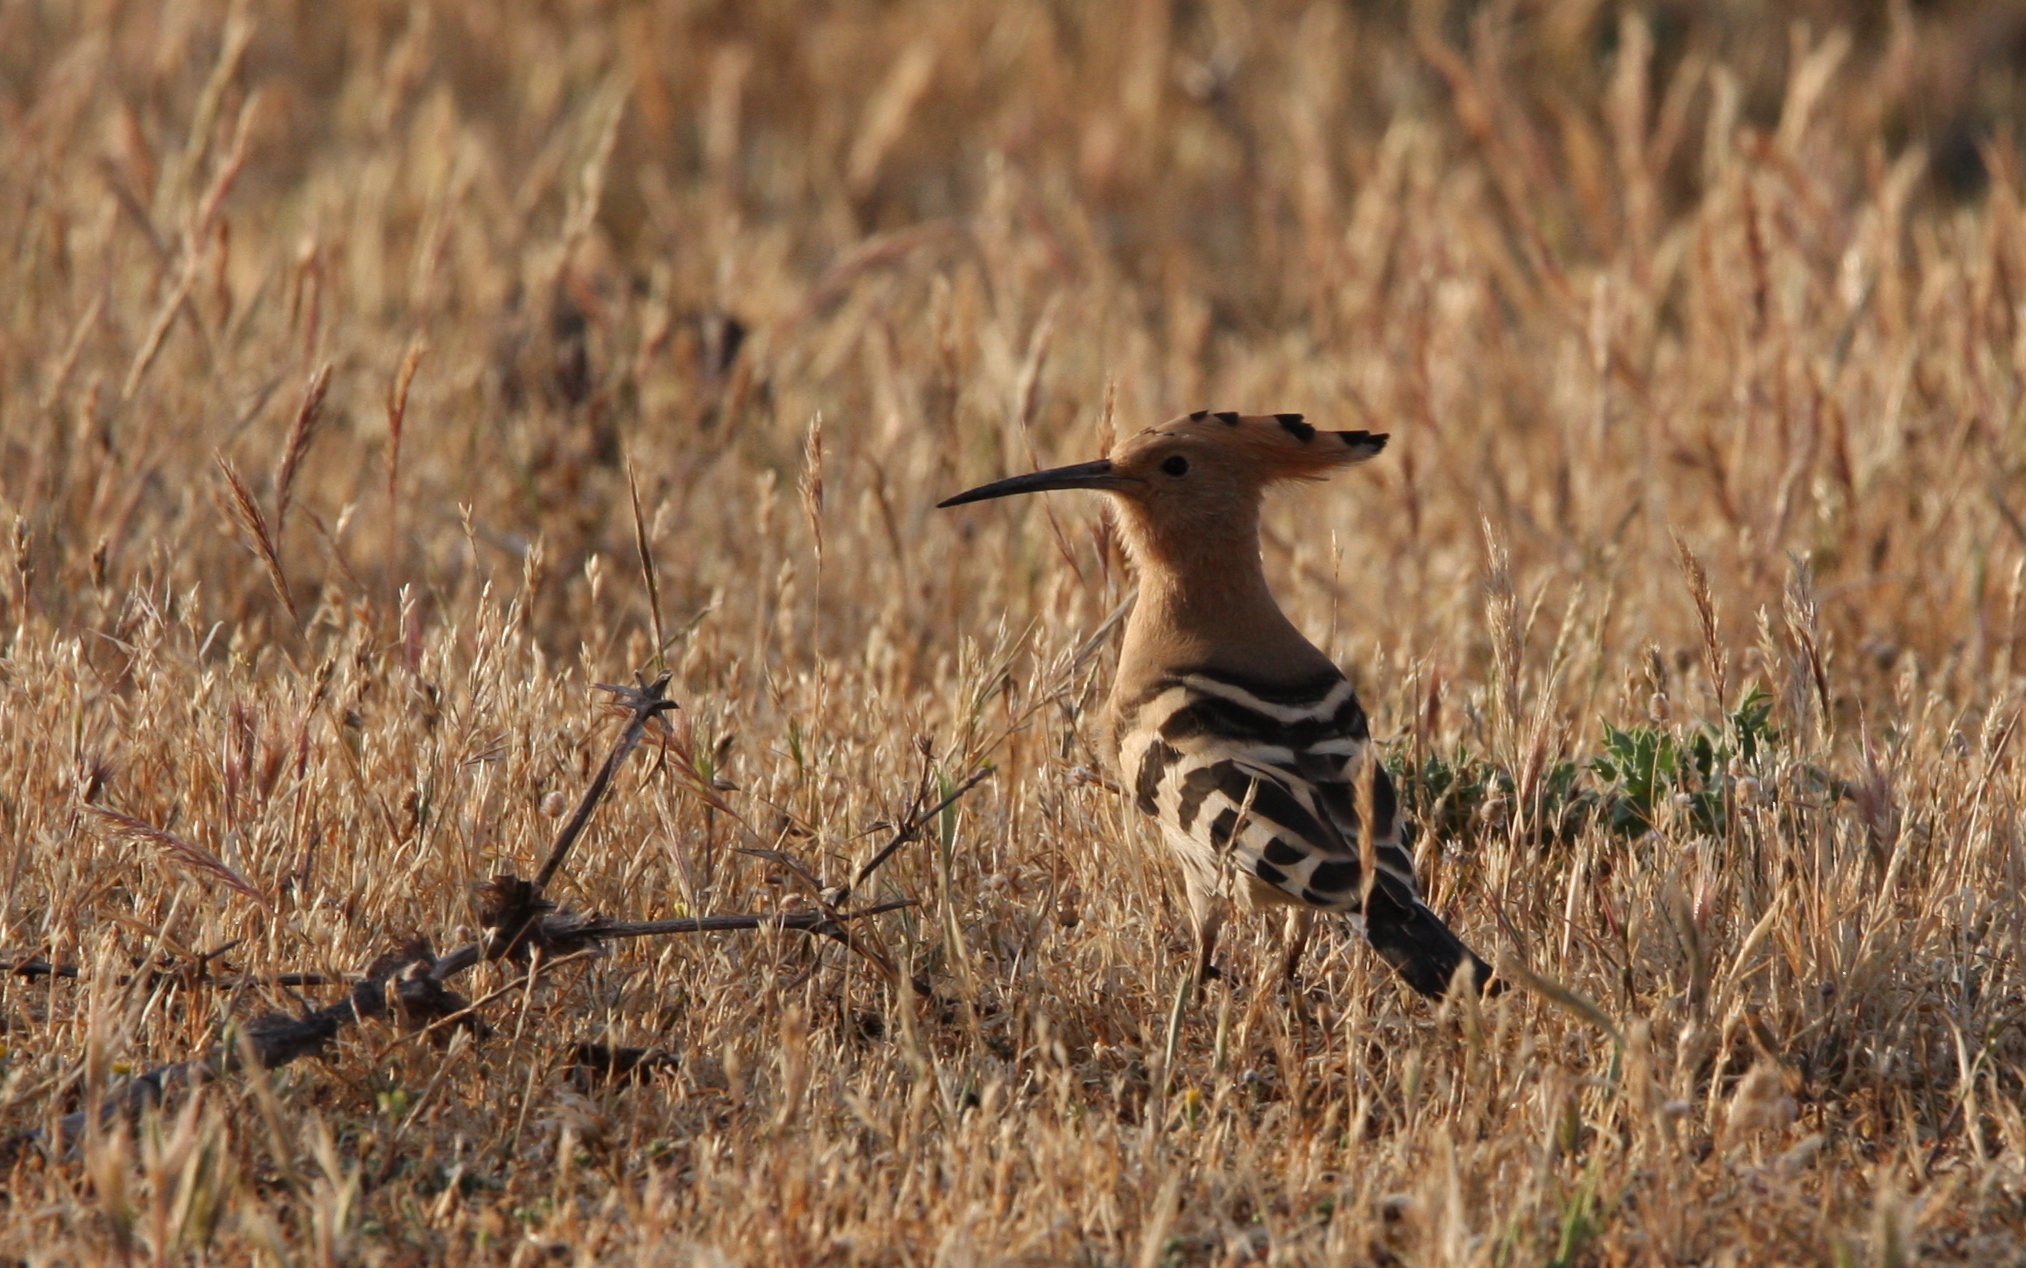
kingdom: Animalia
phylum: Chordata
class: Aves
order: Bucerotiformes
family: Upupidae
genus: Upupa
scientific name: Upupa epops
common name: Eurasian hoopoe
